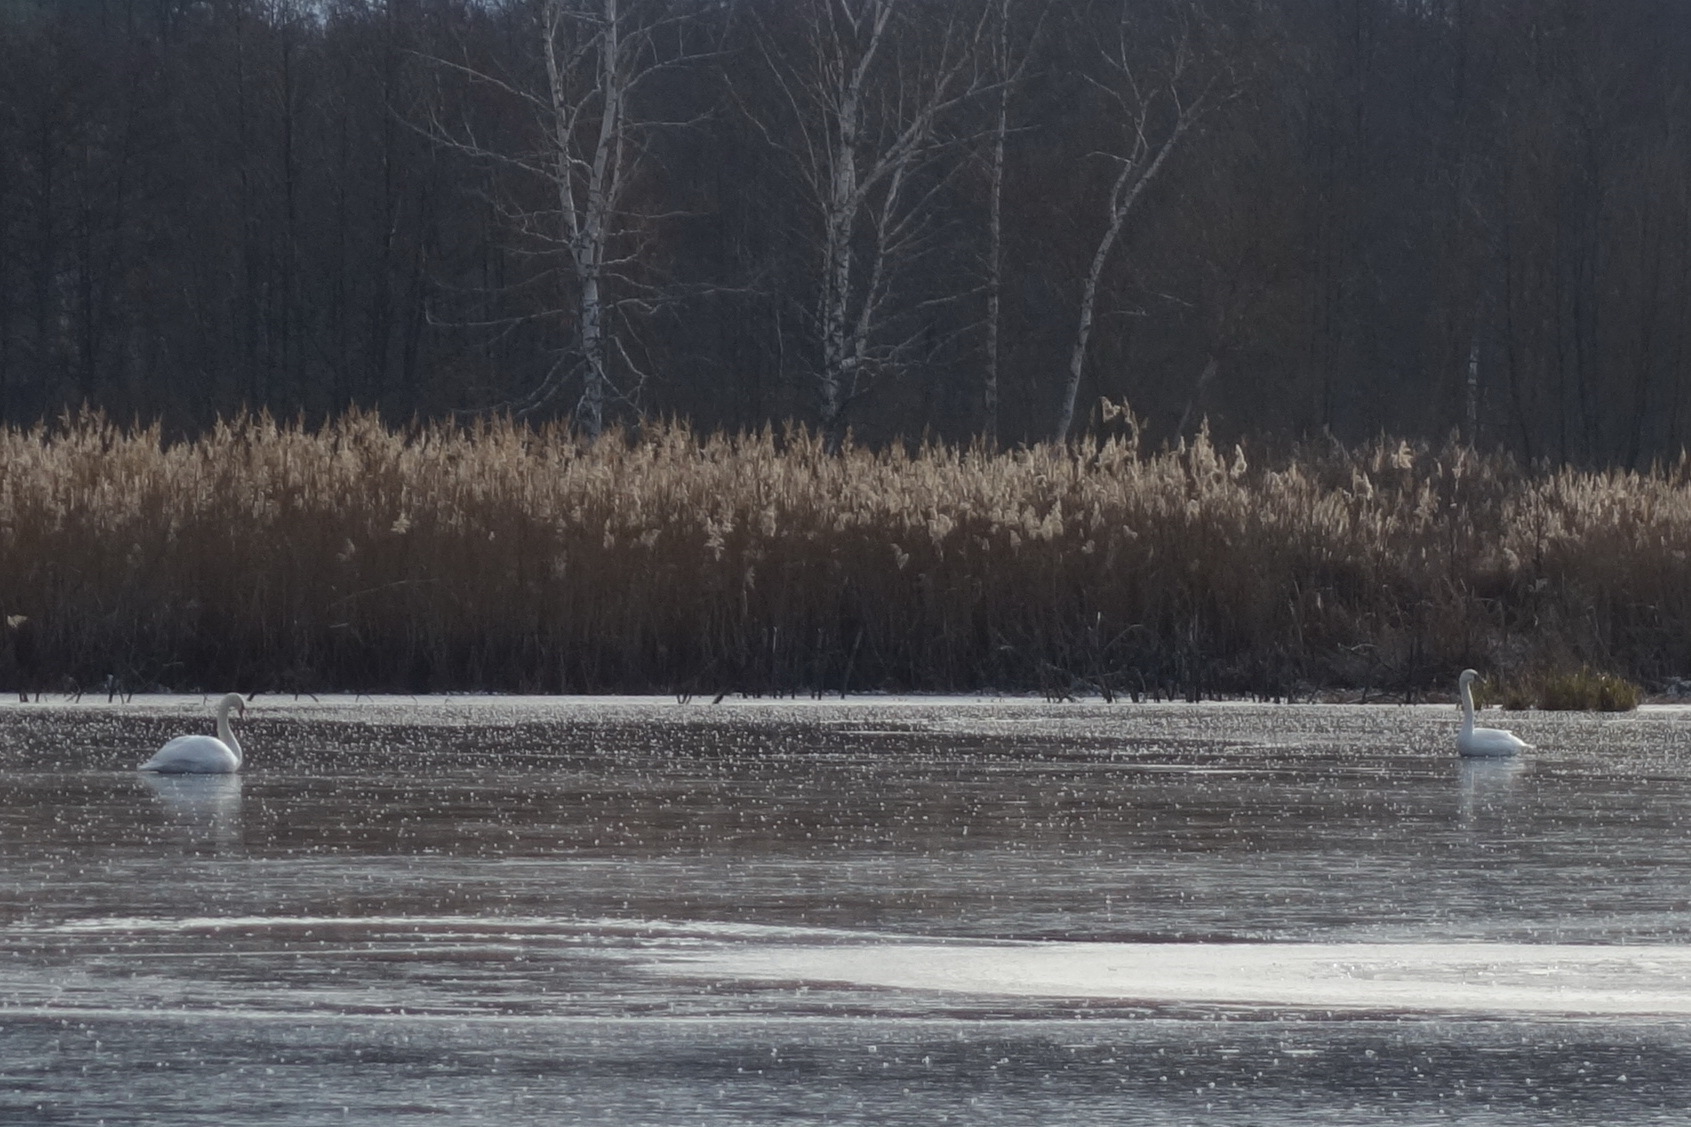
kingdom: Animalia
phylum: Chordata
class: Aves
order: Anseriformes
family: Anatidae
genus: Cygnus
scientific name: Cygnus olor
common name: Mute swan
